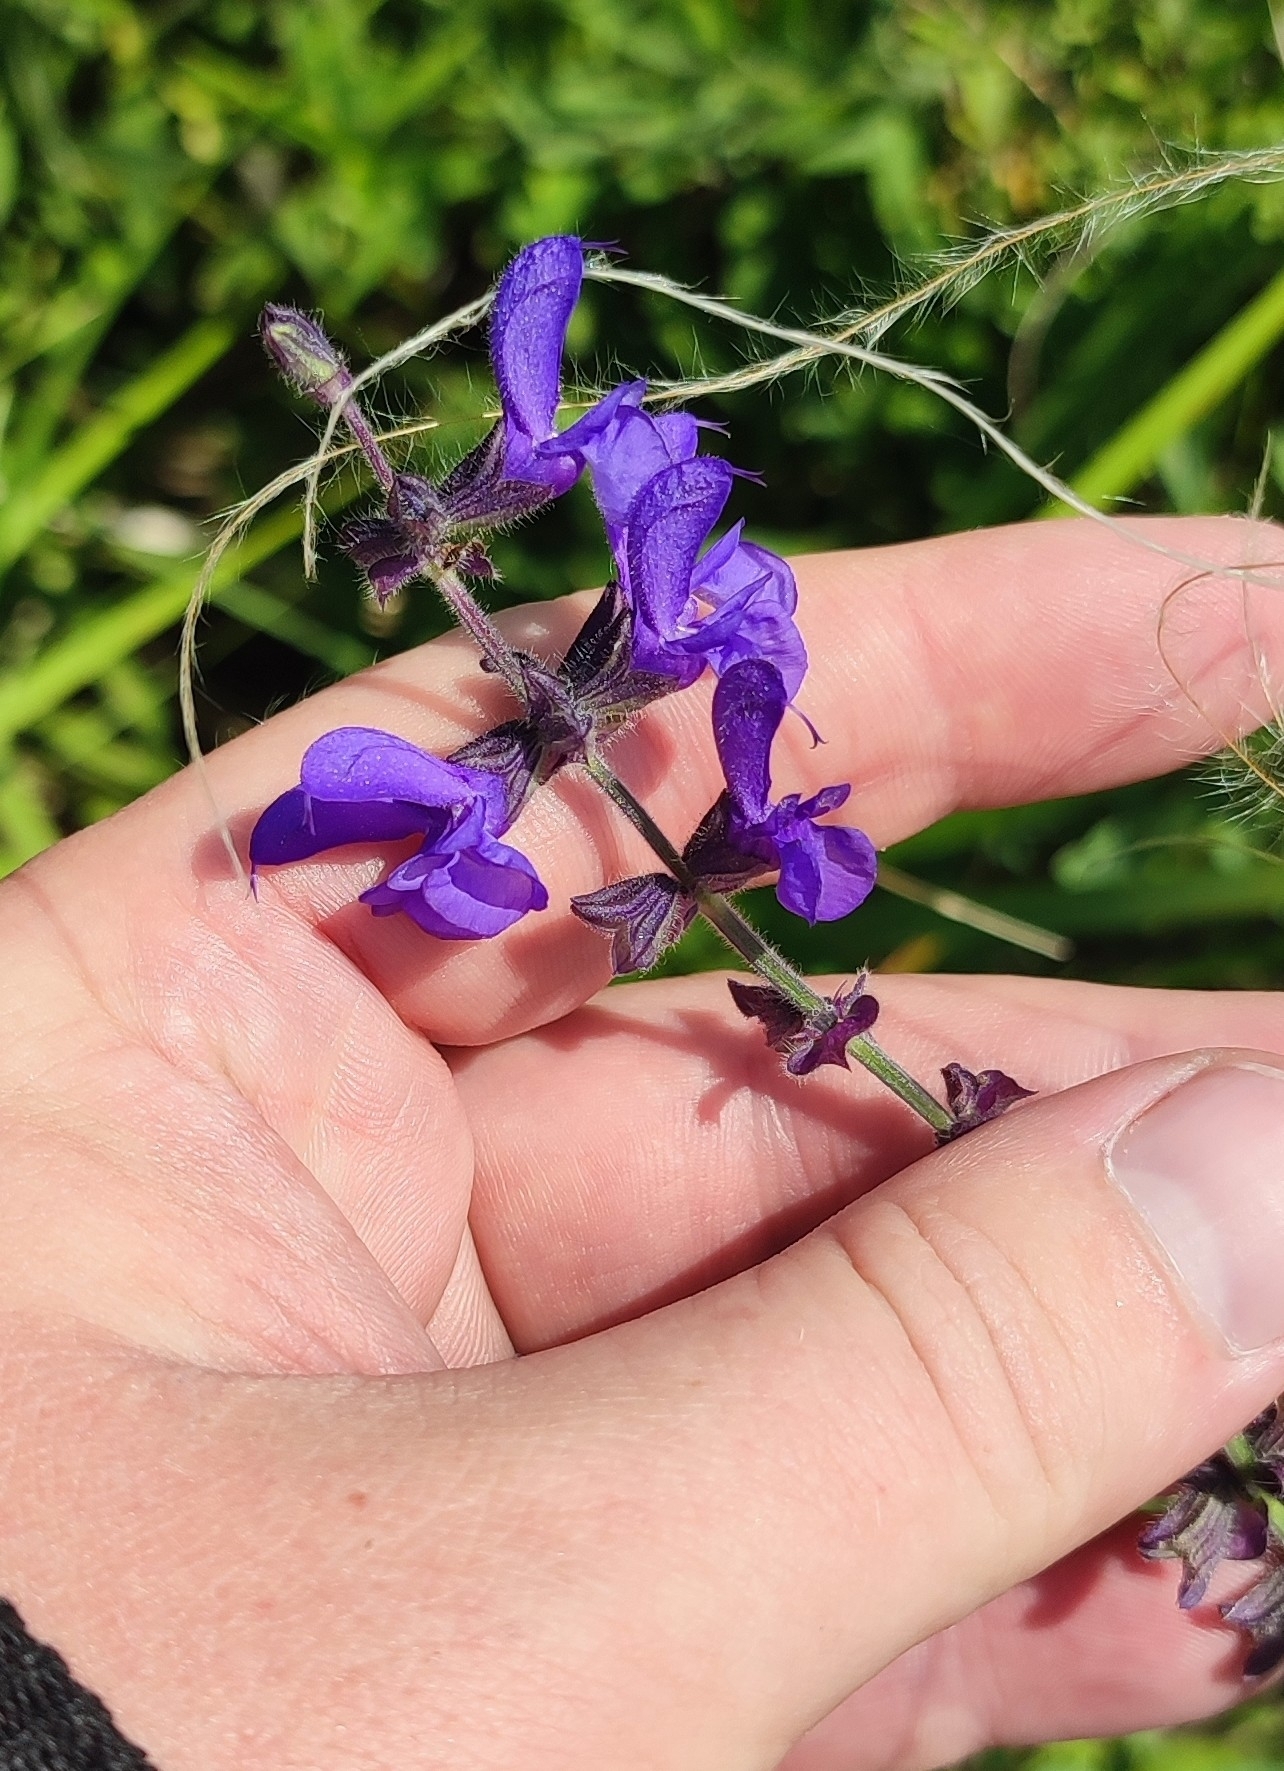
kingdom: Plantae
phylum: Tracheophyta
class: Magnoliopsida
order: Lamiales
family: Lamiaceae
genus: Salvia
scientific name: Salvia dumetorum
